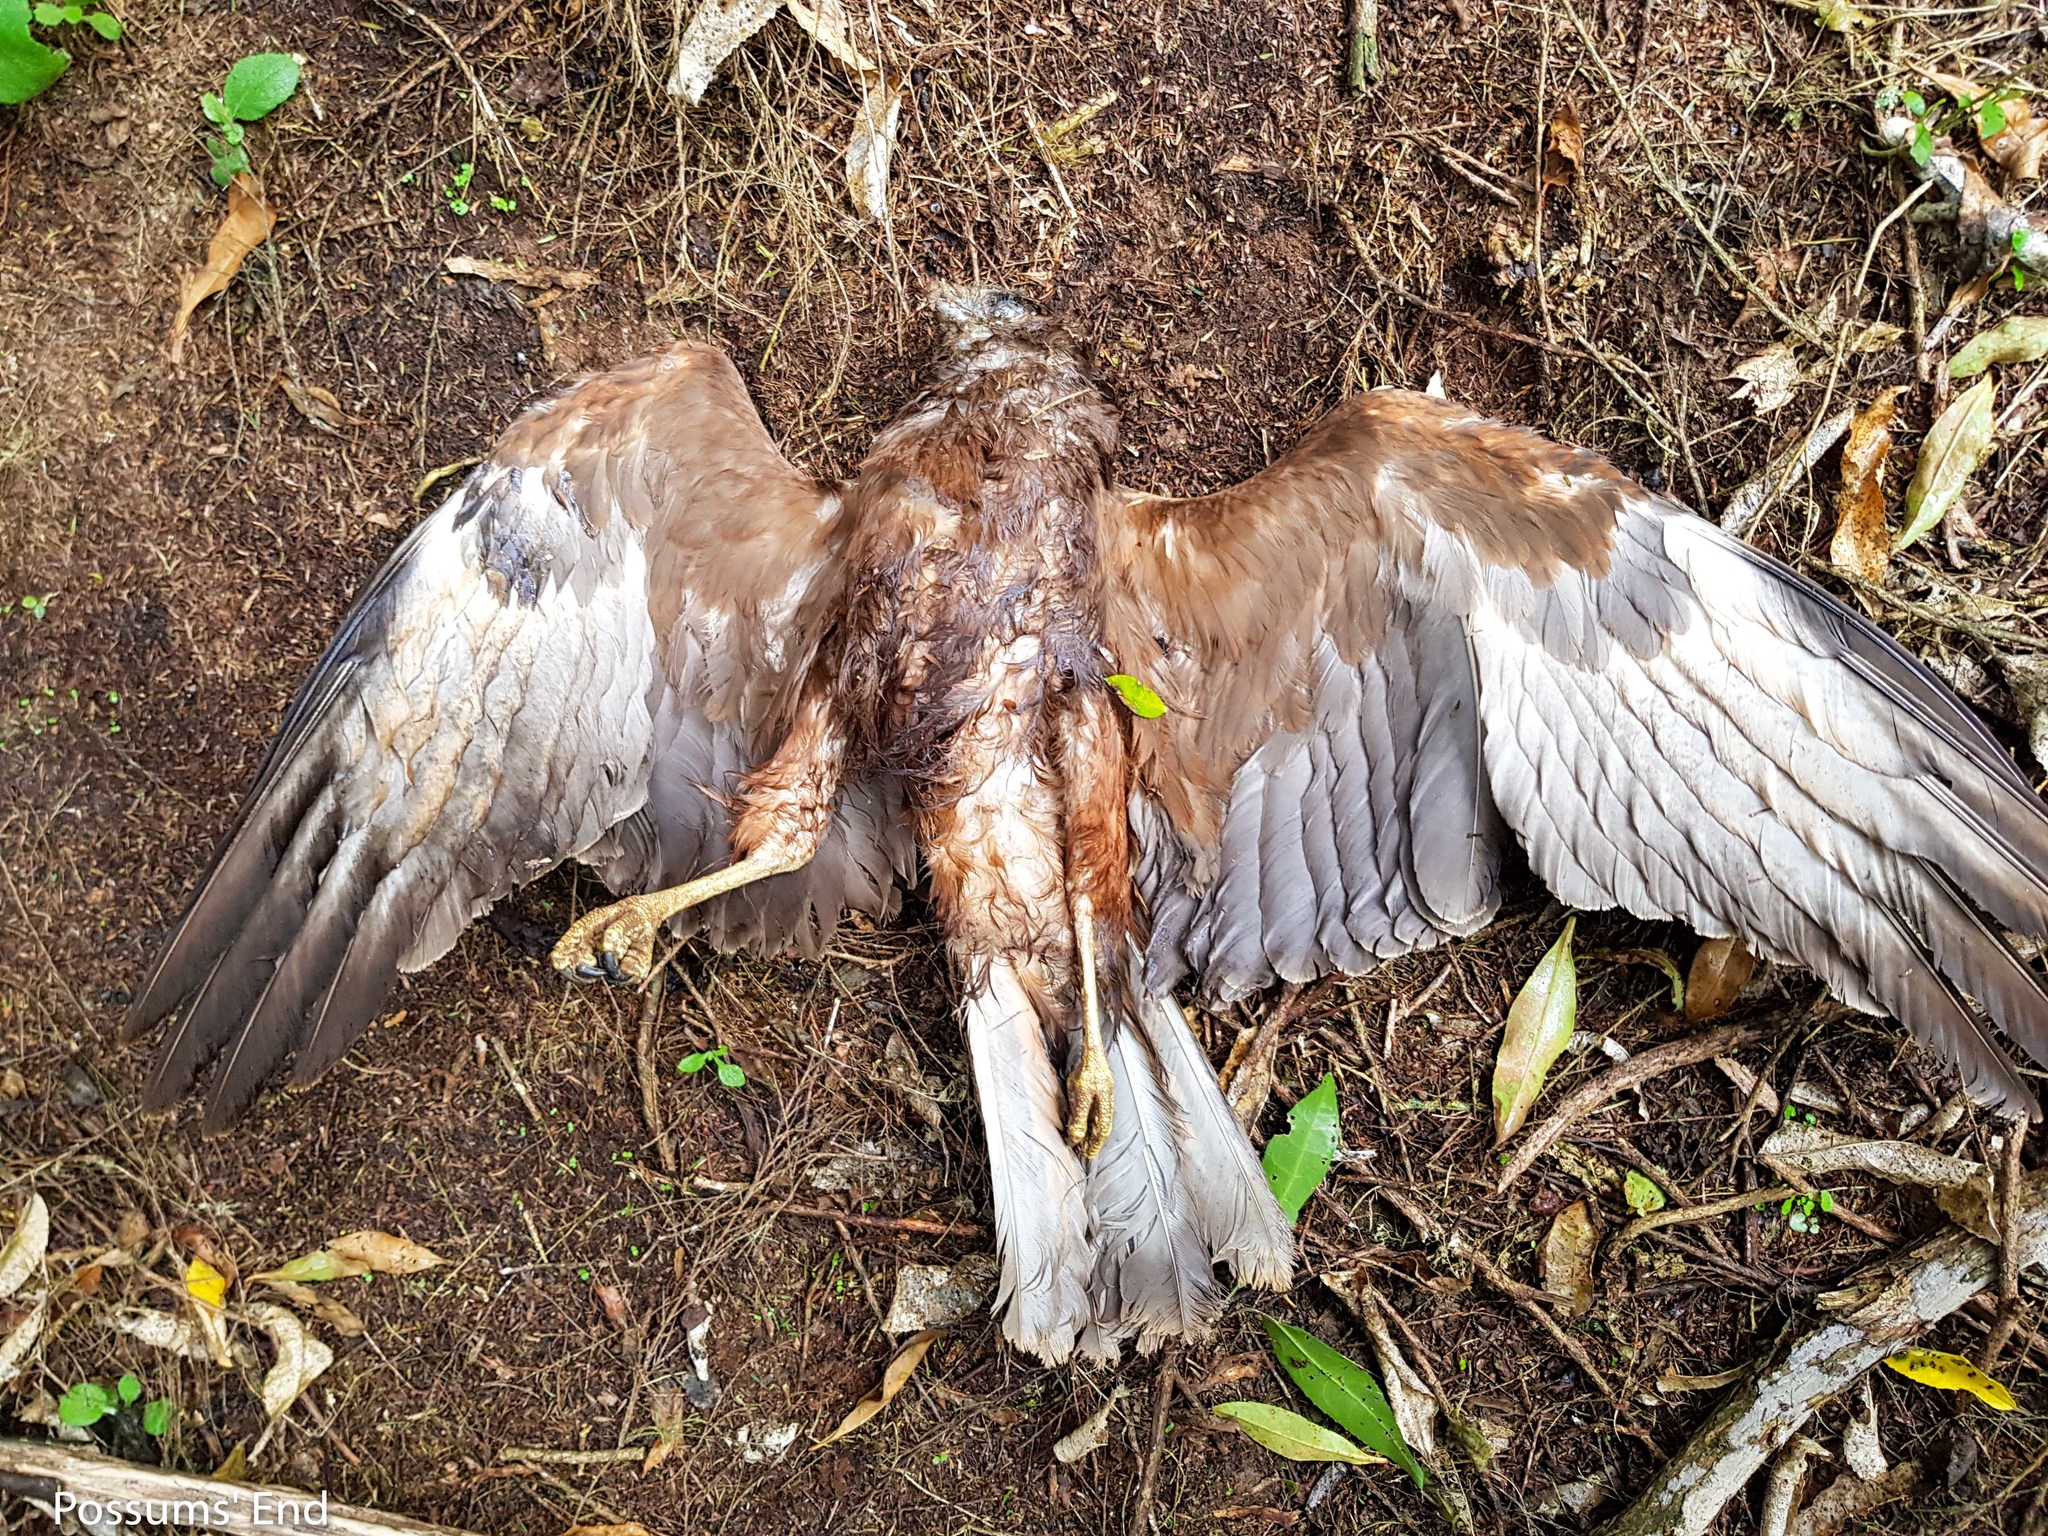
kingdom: Animalia
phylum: Chordata
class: Aves
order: Accipitriformes
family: Accipitridae
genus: Circus
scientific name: Circus approximans
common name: Swamp harrier
